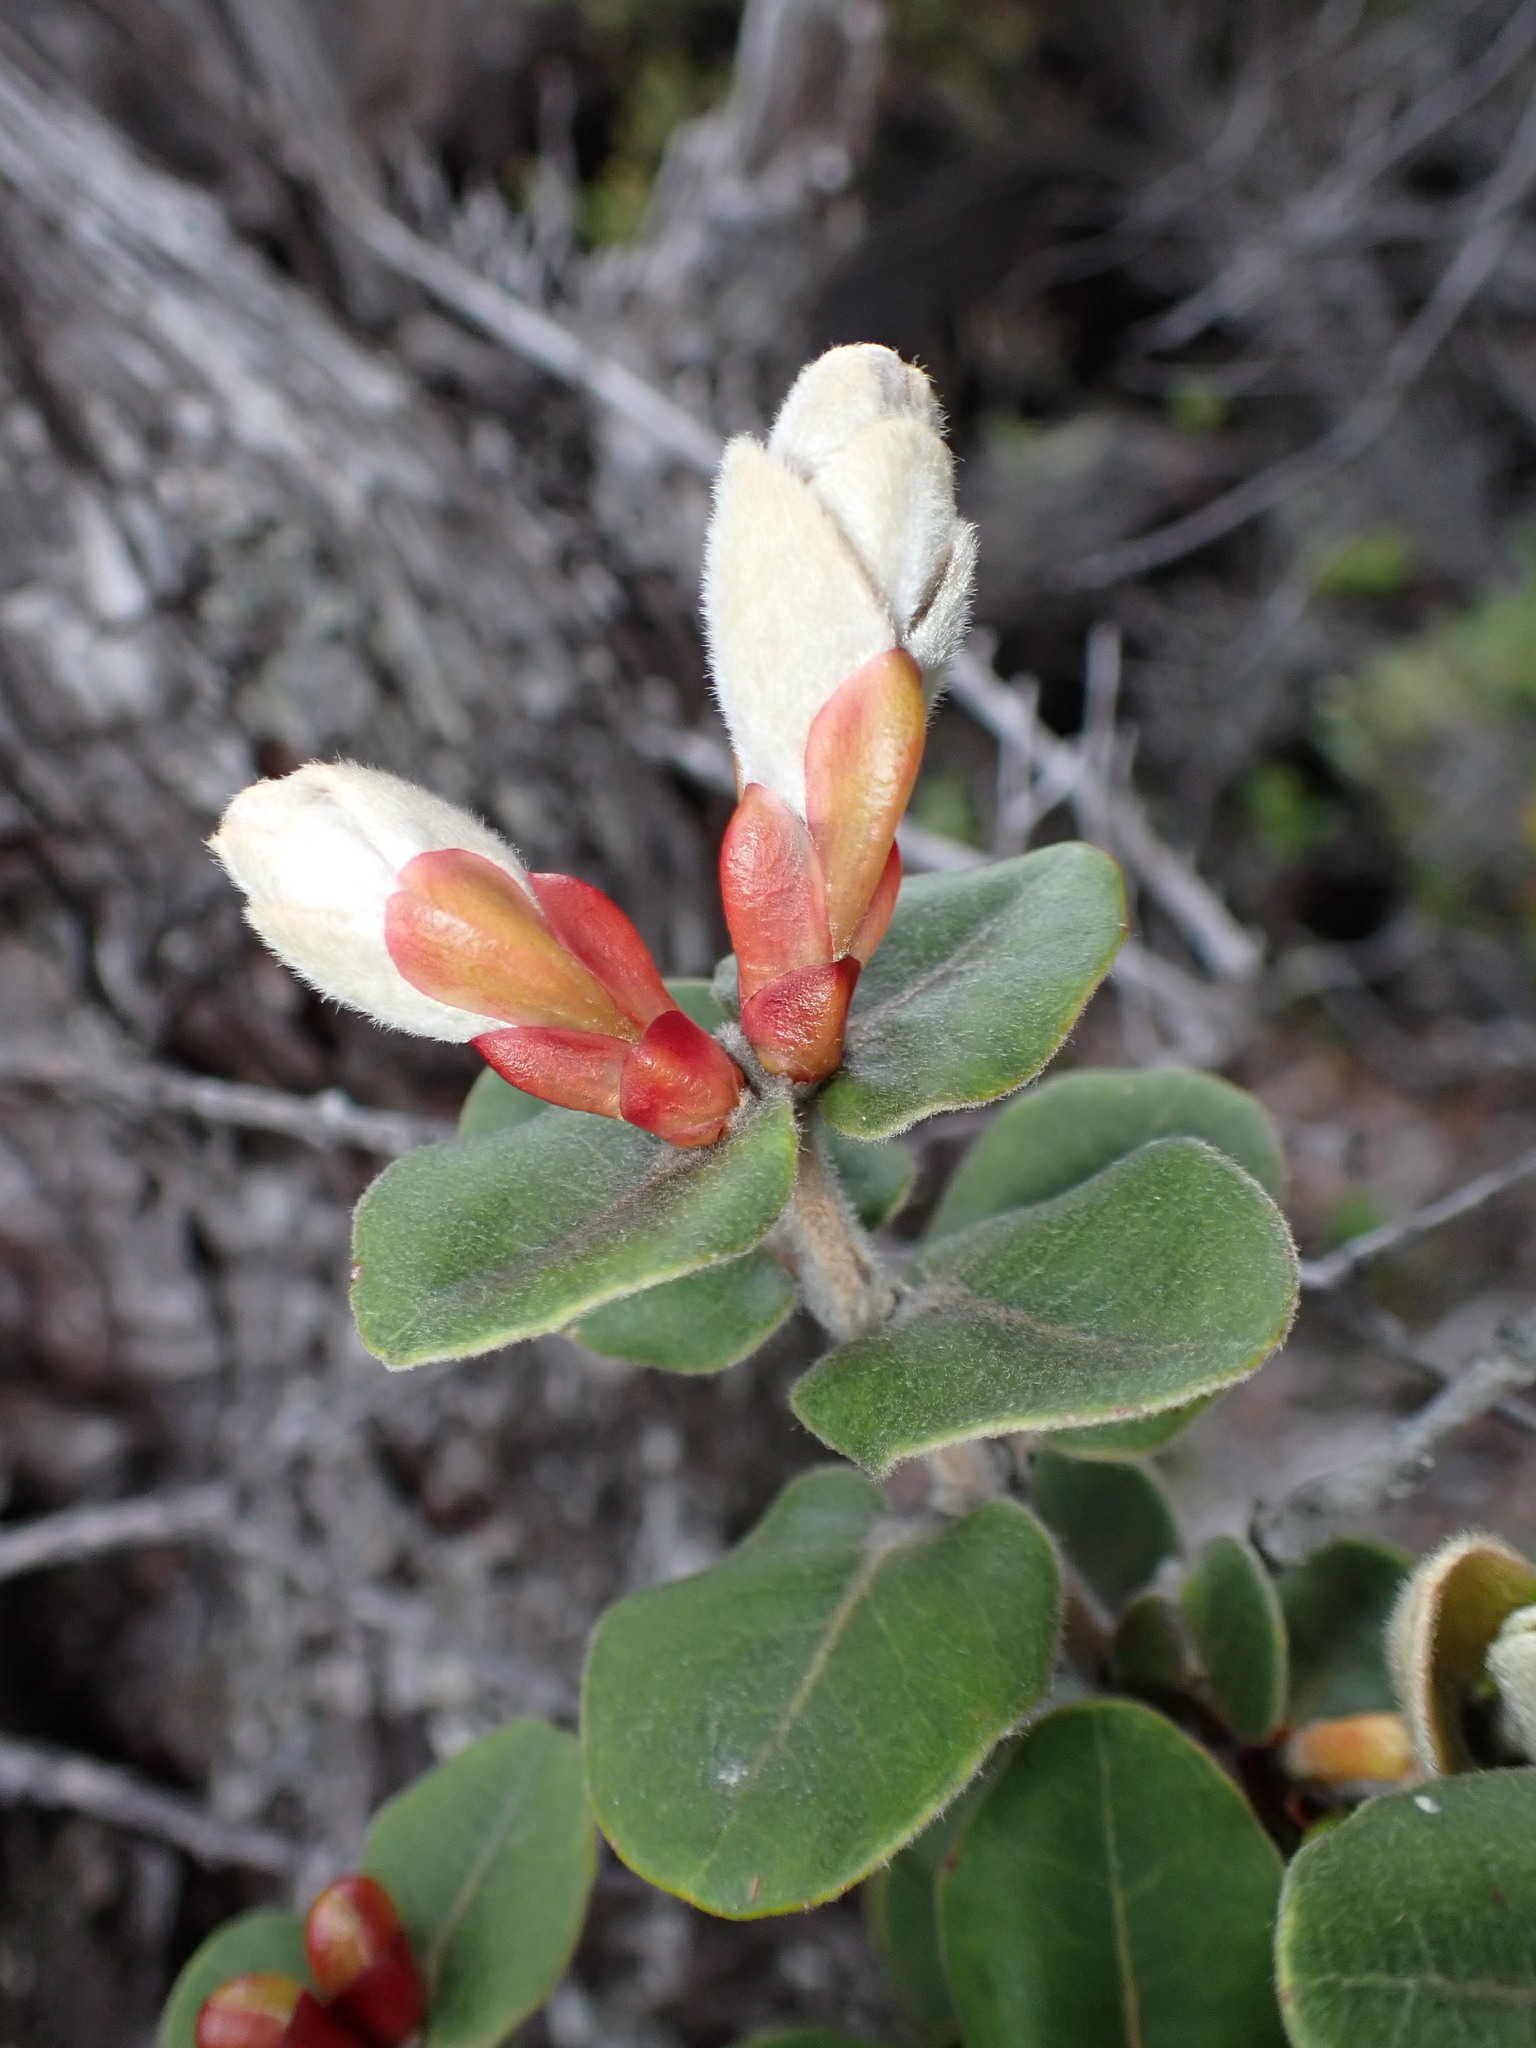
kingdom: Plantae
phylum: Tracheophyta
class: Magnoliopsida
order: Myrtales
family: Myrtaceae
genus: Metrosideros
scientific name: Metrosideros polymorpha
